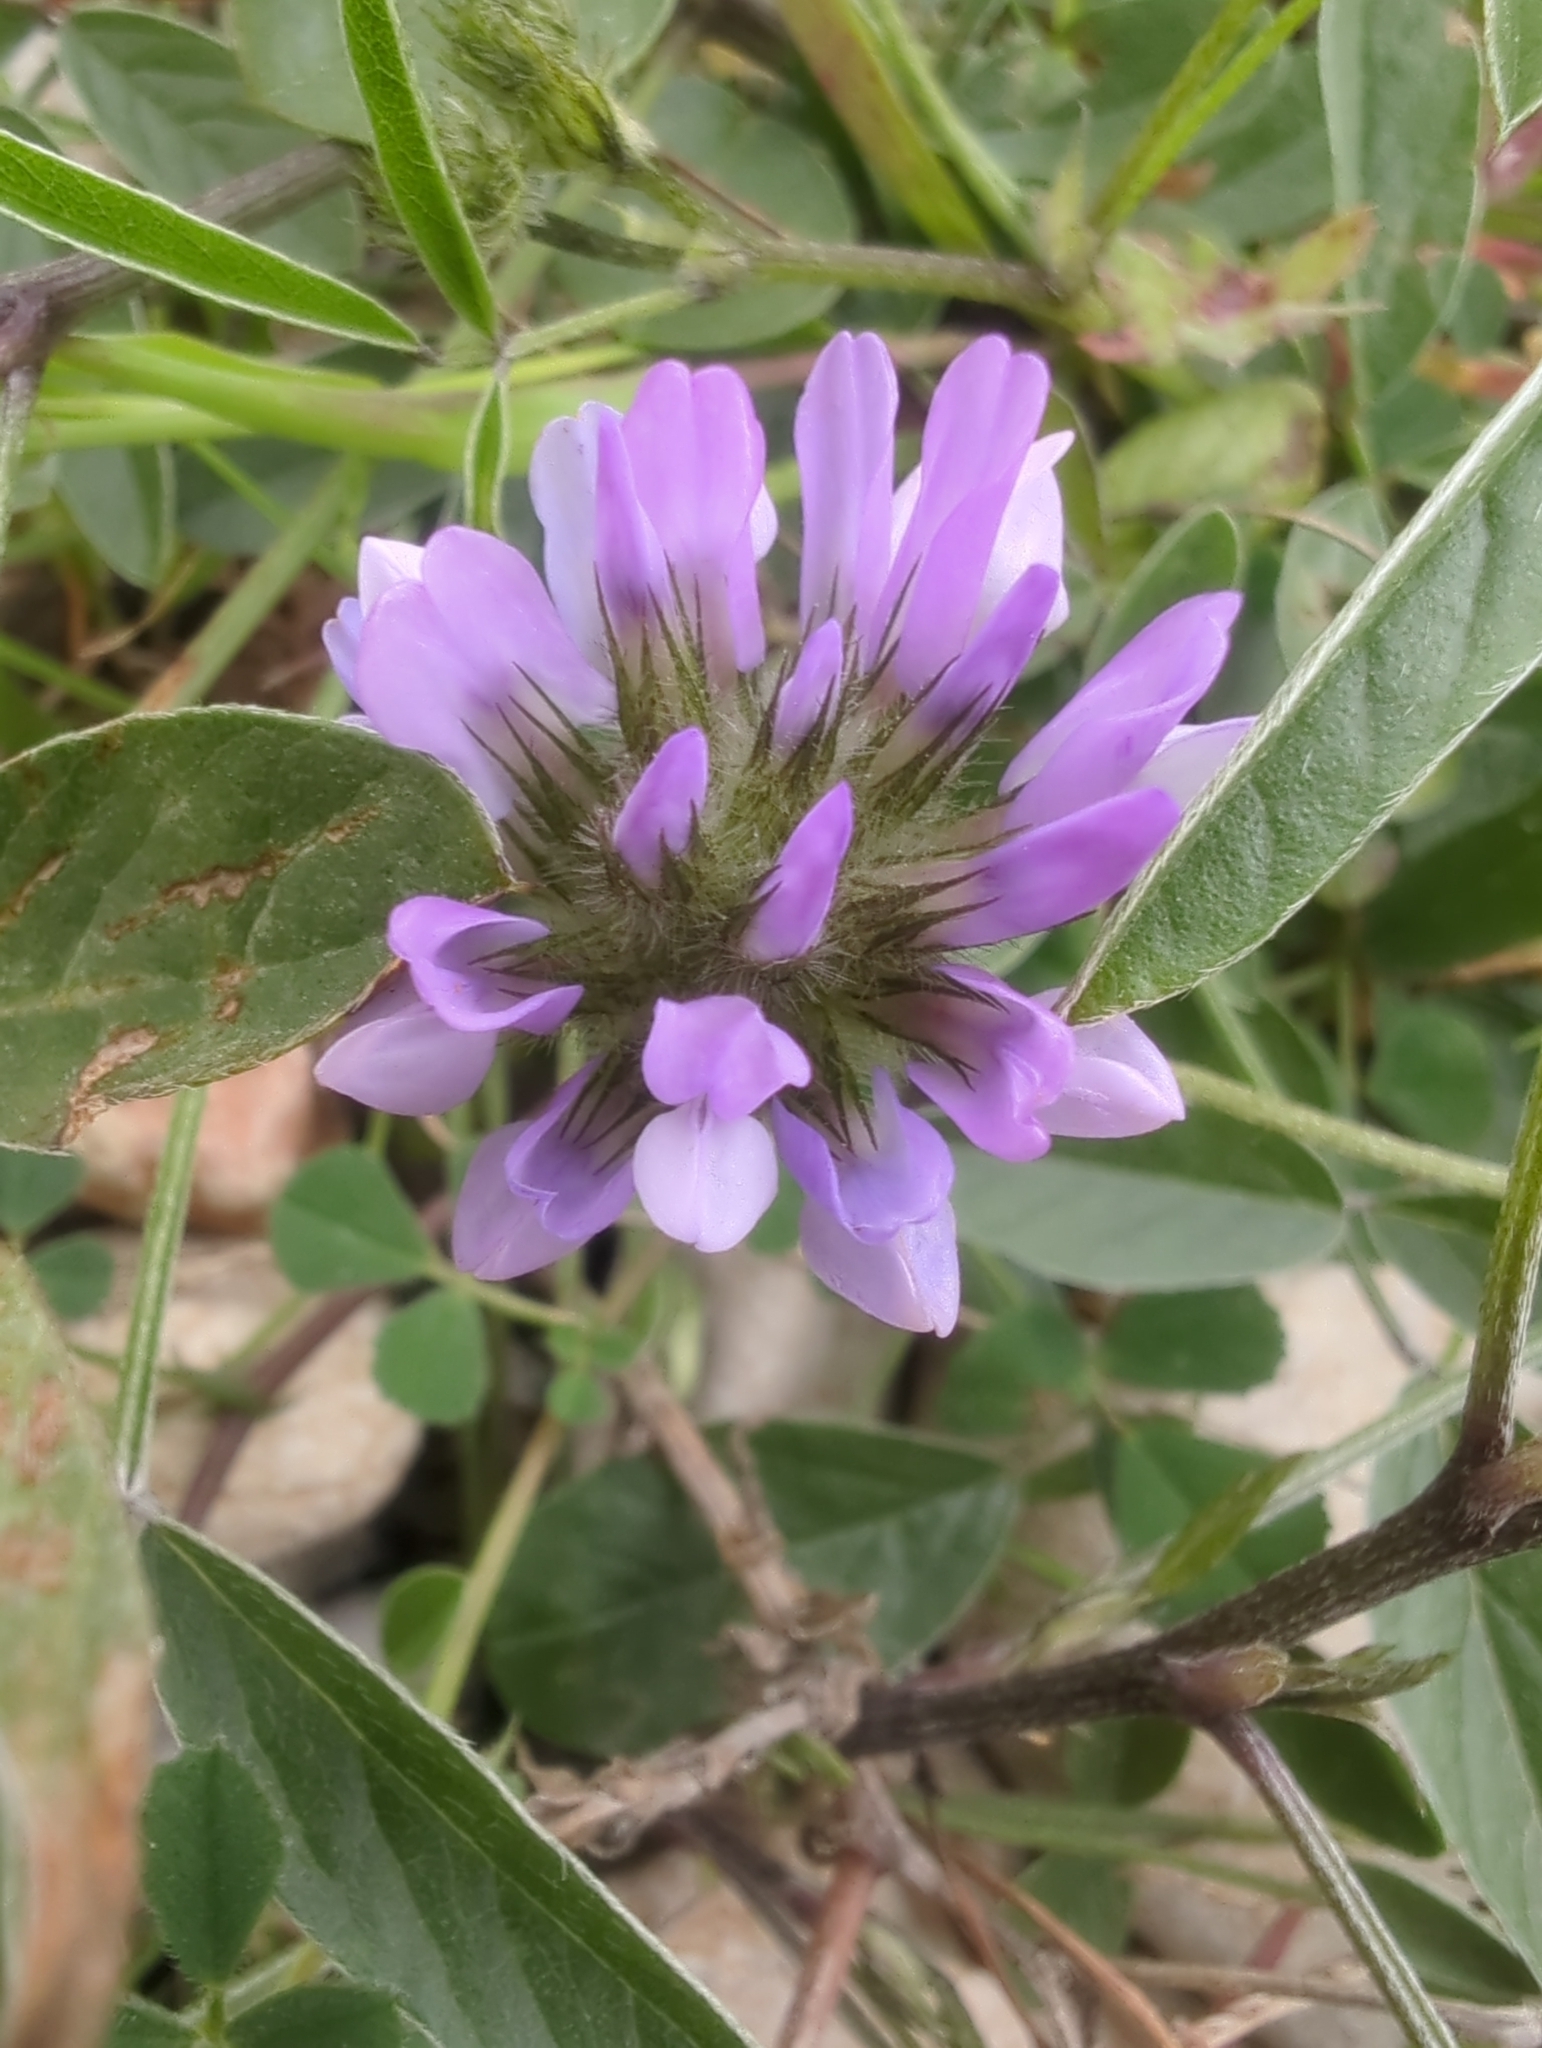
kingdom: Plantae
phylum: Tracheophyta
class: Magnoliopsida
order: Fabales
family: Fabaceae
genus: Bituminaria
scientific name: Bituminaria bituminosa
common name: Arabian pea
